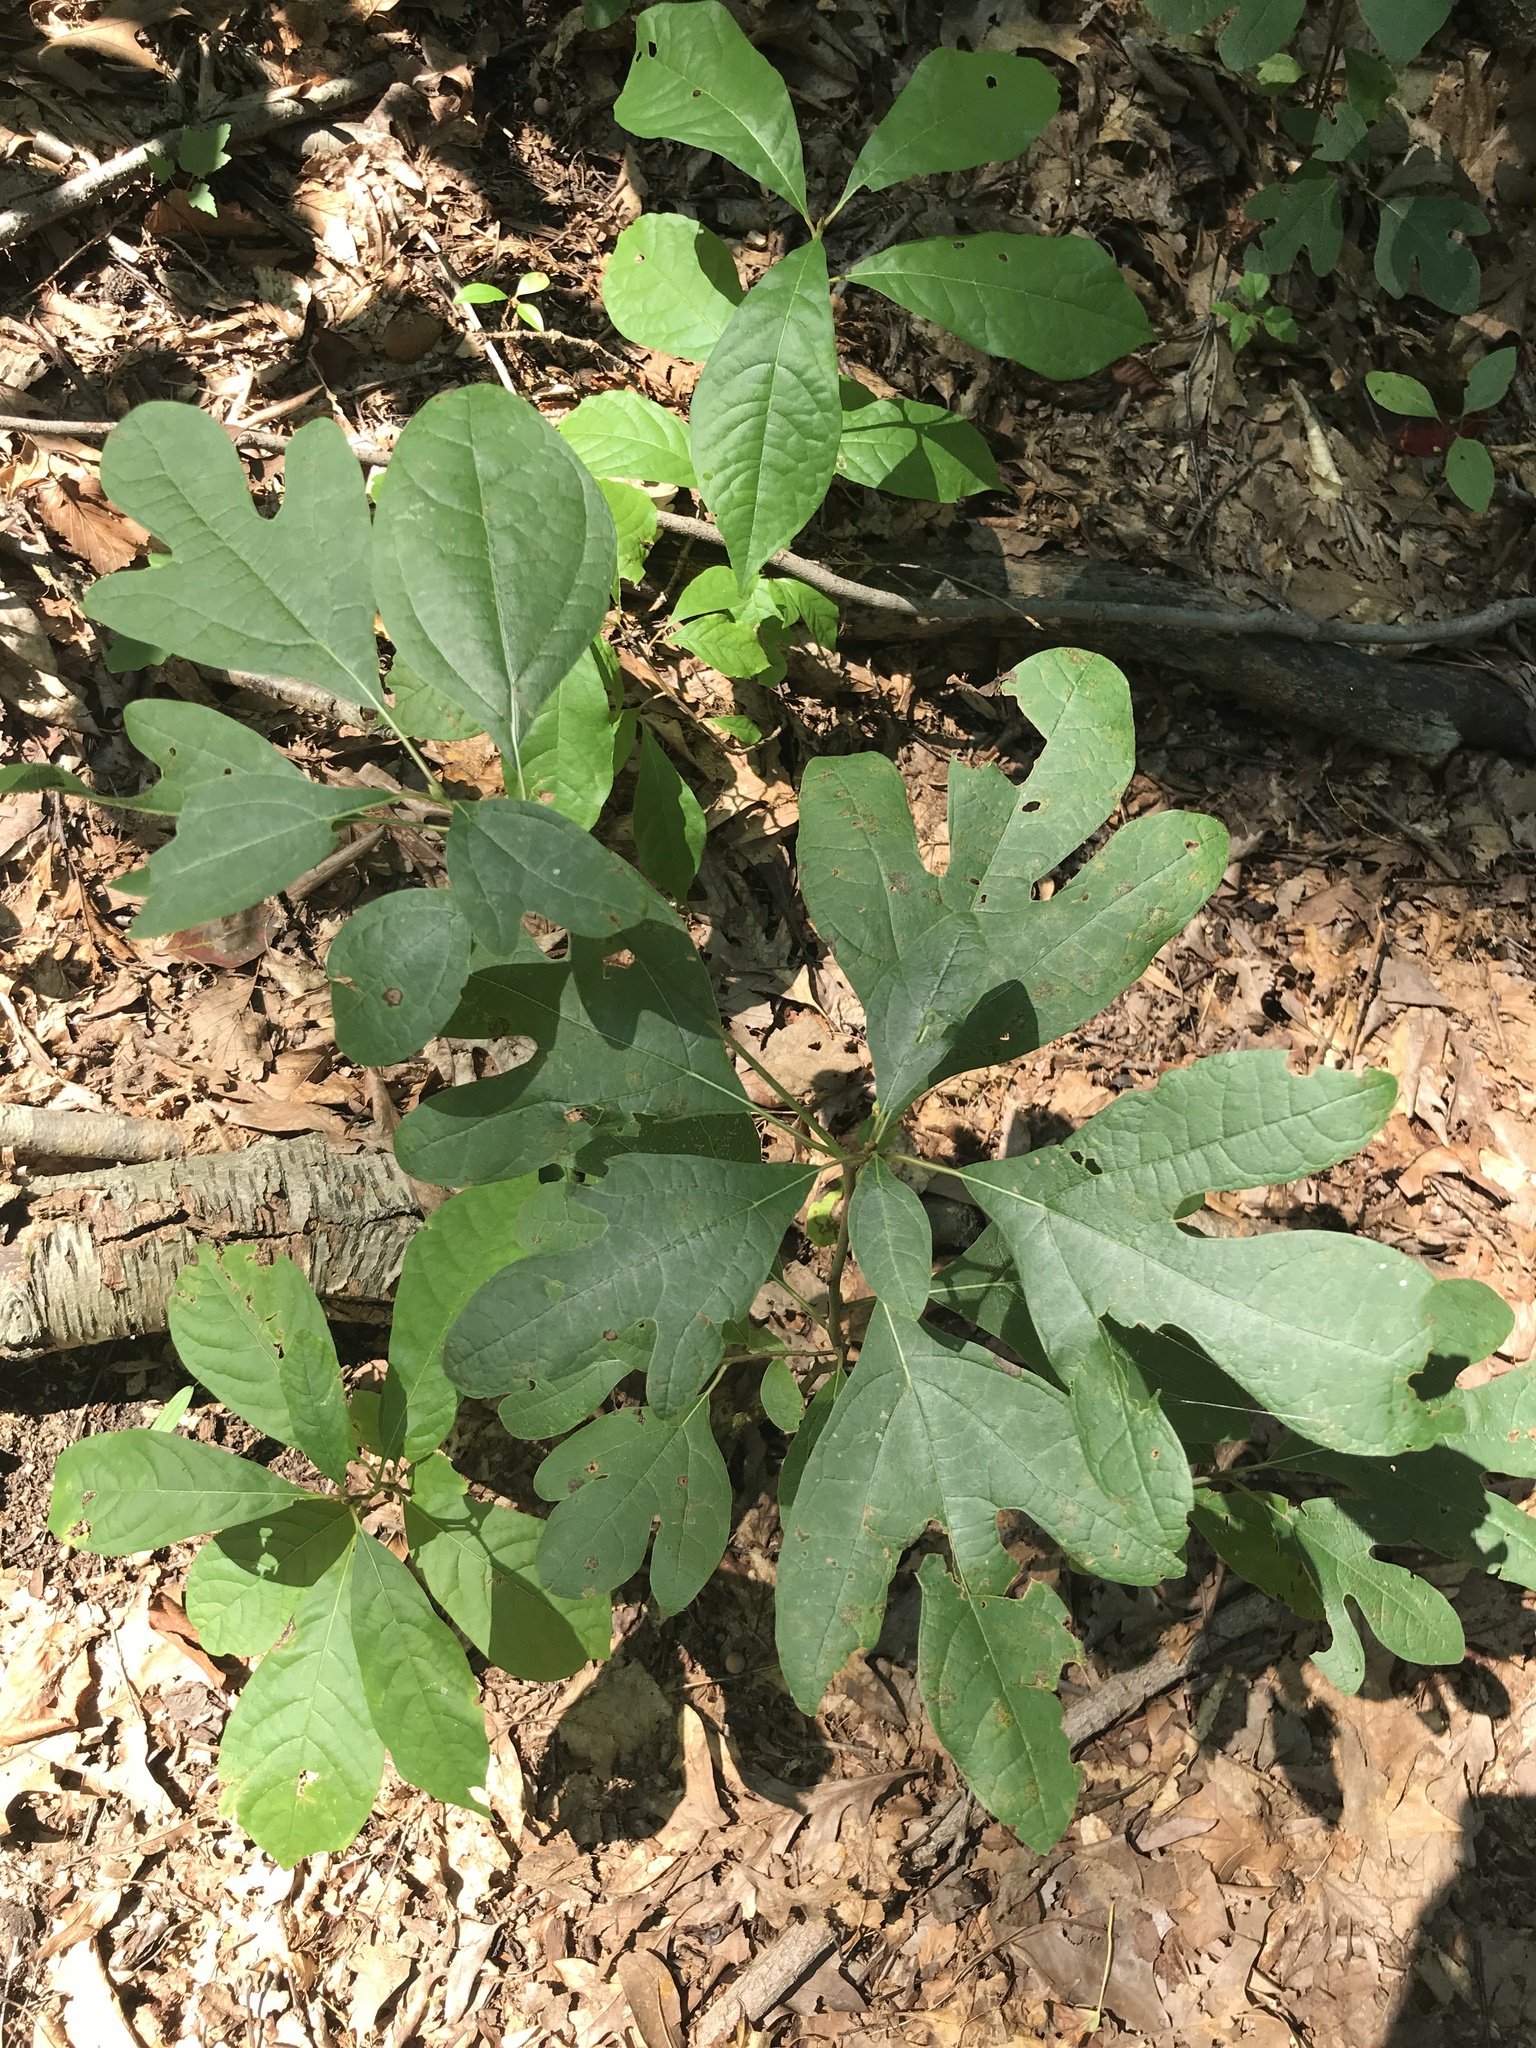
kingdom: Plantae
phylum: Tracheophyta
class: Magnoliopsida
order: Laurales
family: Lauraceae
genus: Sassafras
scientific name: Sassafras albidum
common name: Sassafras
